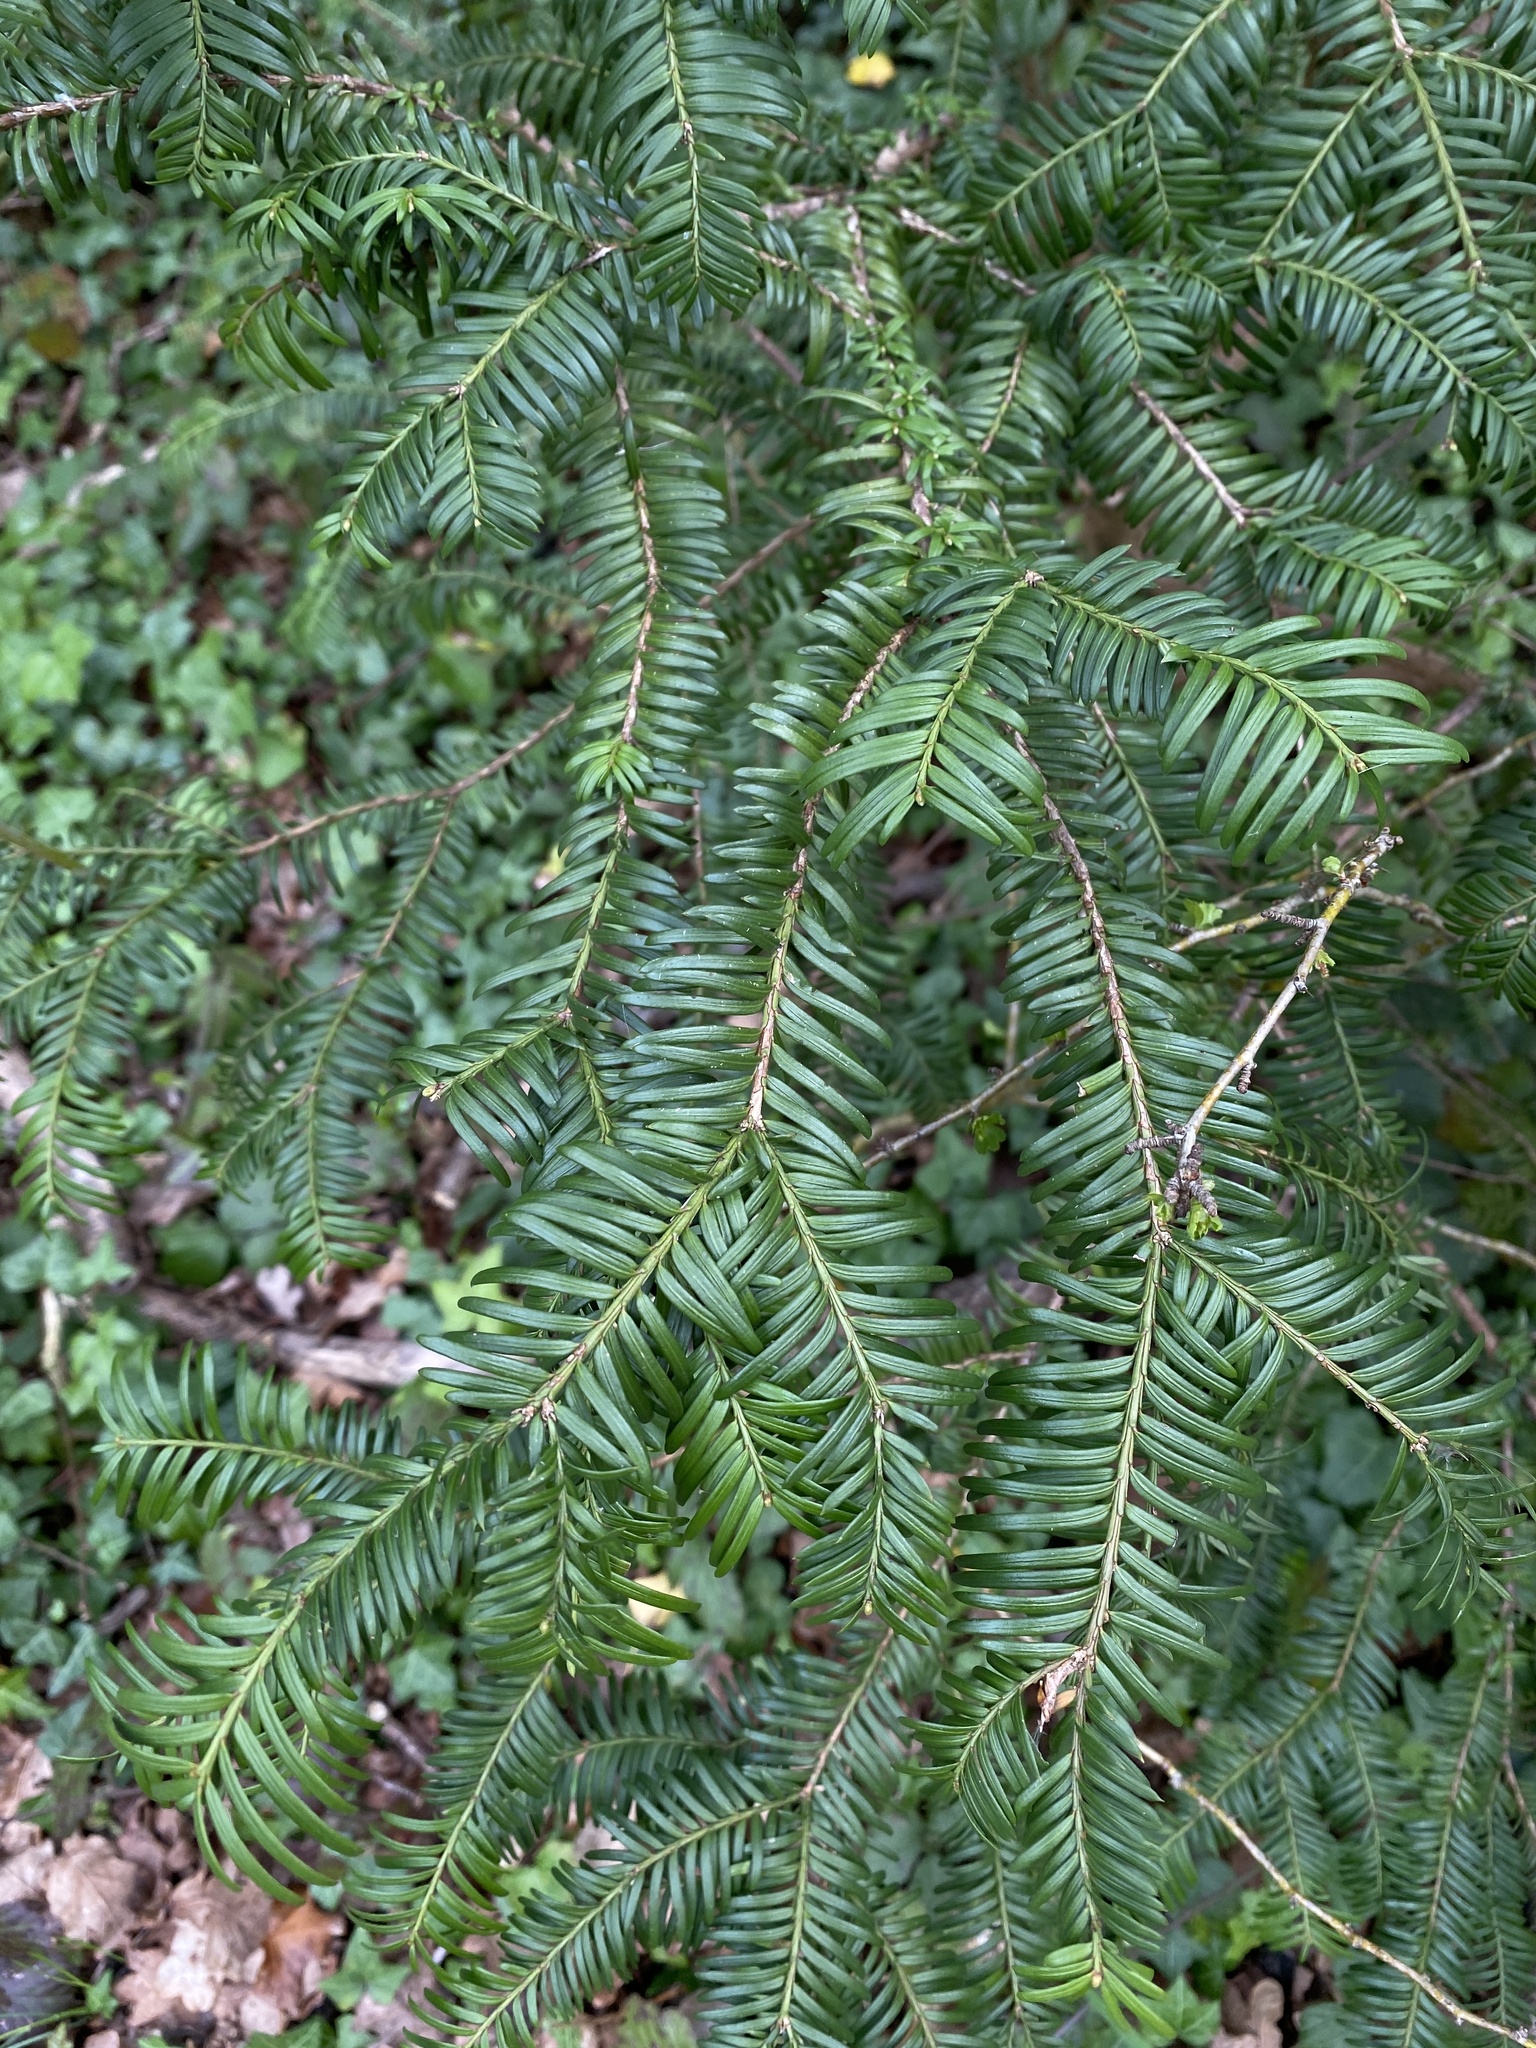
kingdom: Plantae
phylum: Tracheophyta
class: Pinopsida
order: Pinales
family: Taxaceae
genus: Taxus
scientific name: Taxus baccata
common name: Yew
